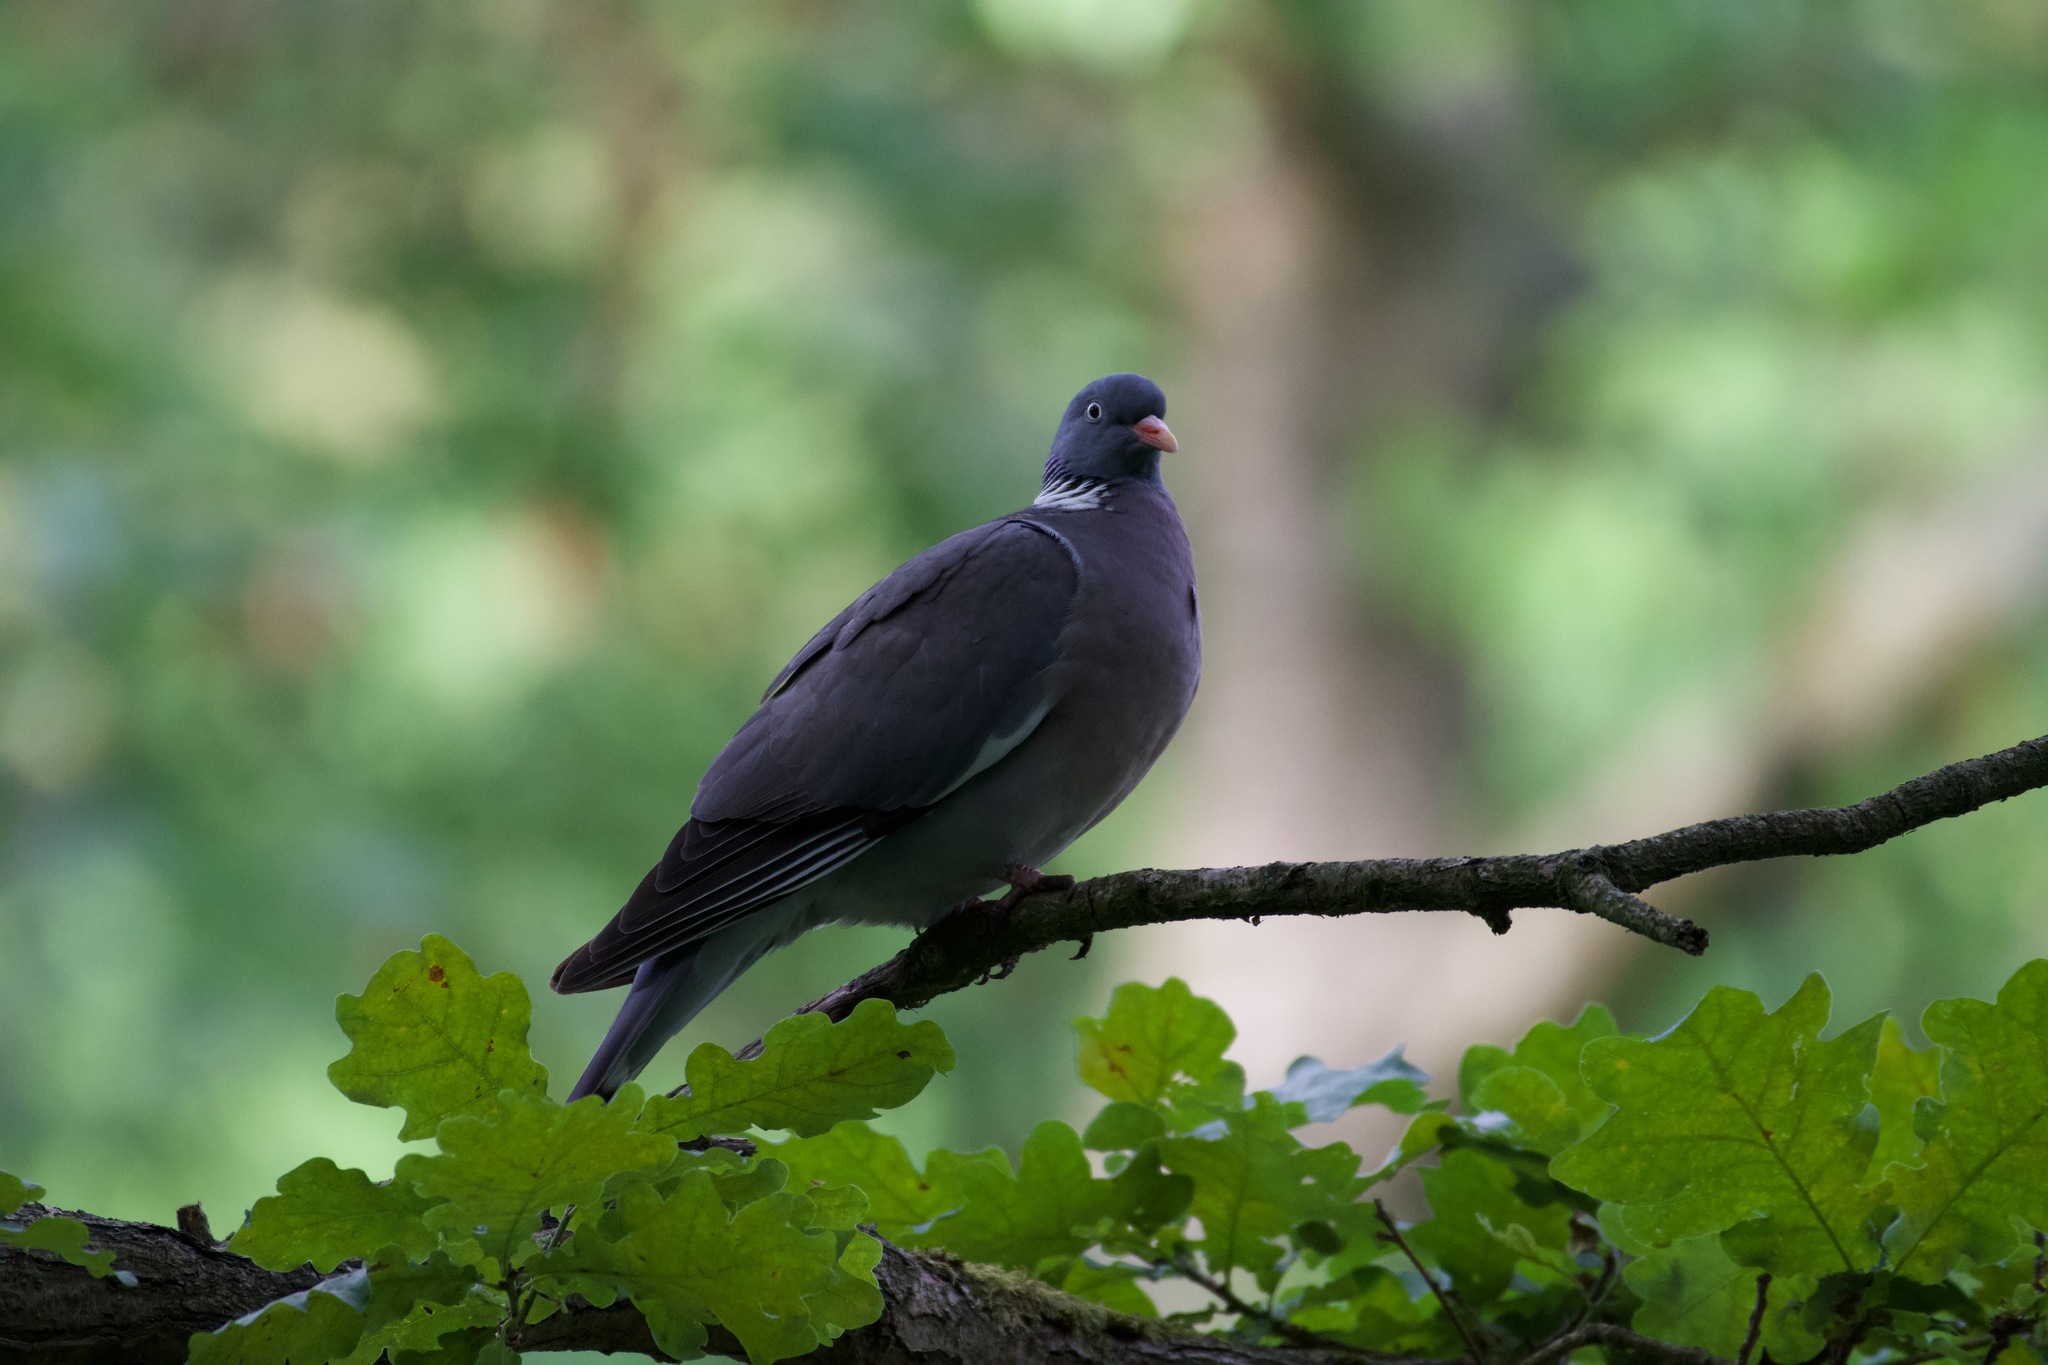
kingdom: Animalia
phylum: Chordata
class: Aves
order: Columbiformes
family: Columbidae
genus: Columba
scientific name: Columba palumbus
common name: Common wood pigeon
